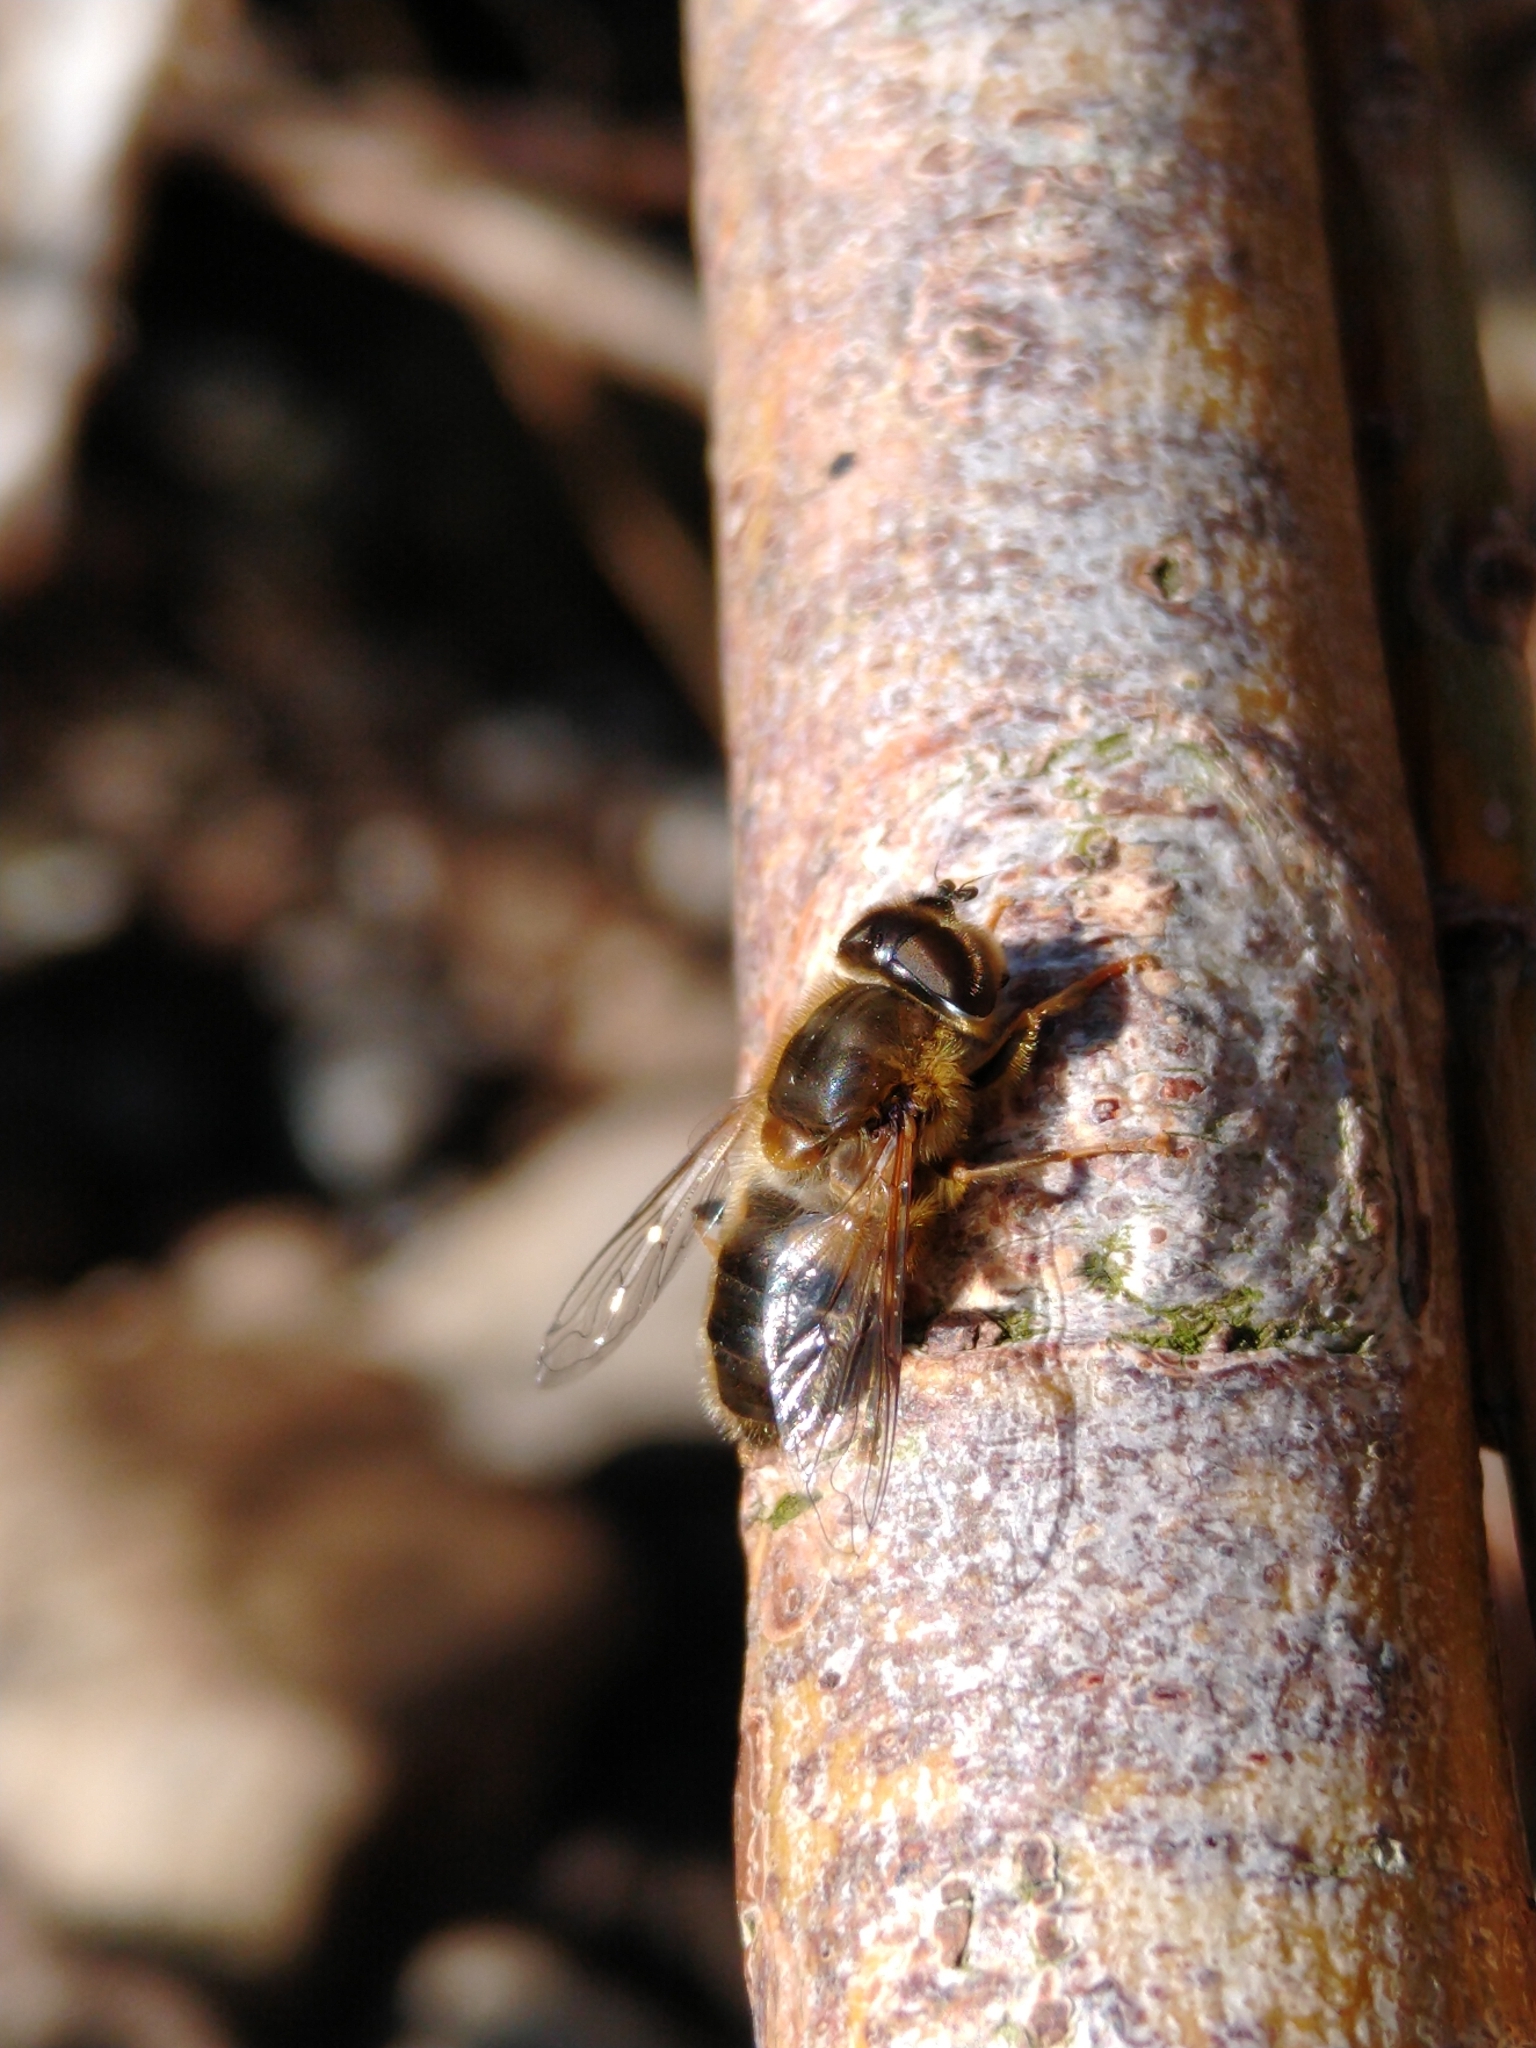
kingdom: Animalia
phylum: Arthropoda
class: Insecta
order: Diptera
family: Syrphidae
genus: Eristalis
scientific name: Eristalis pertinax
